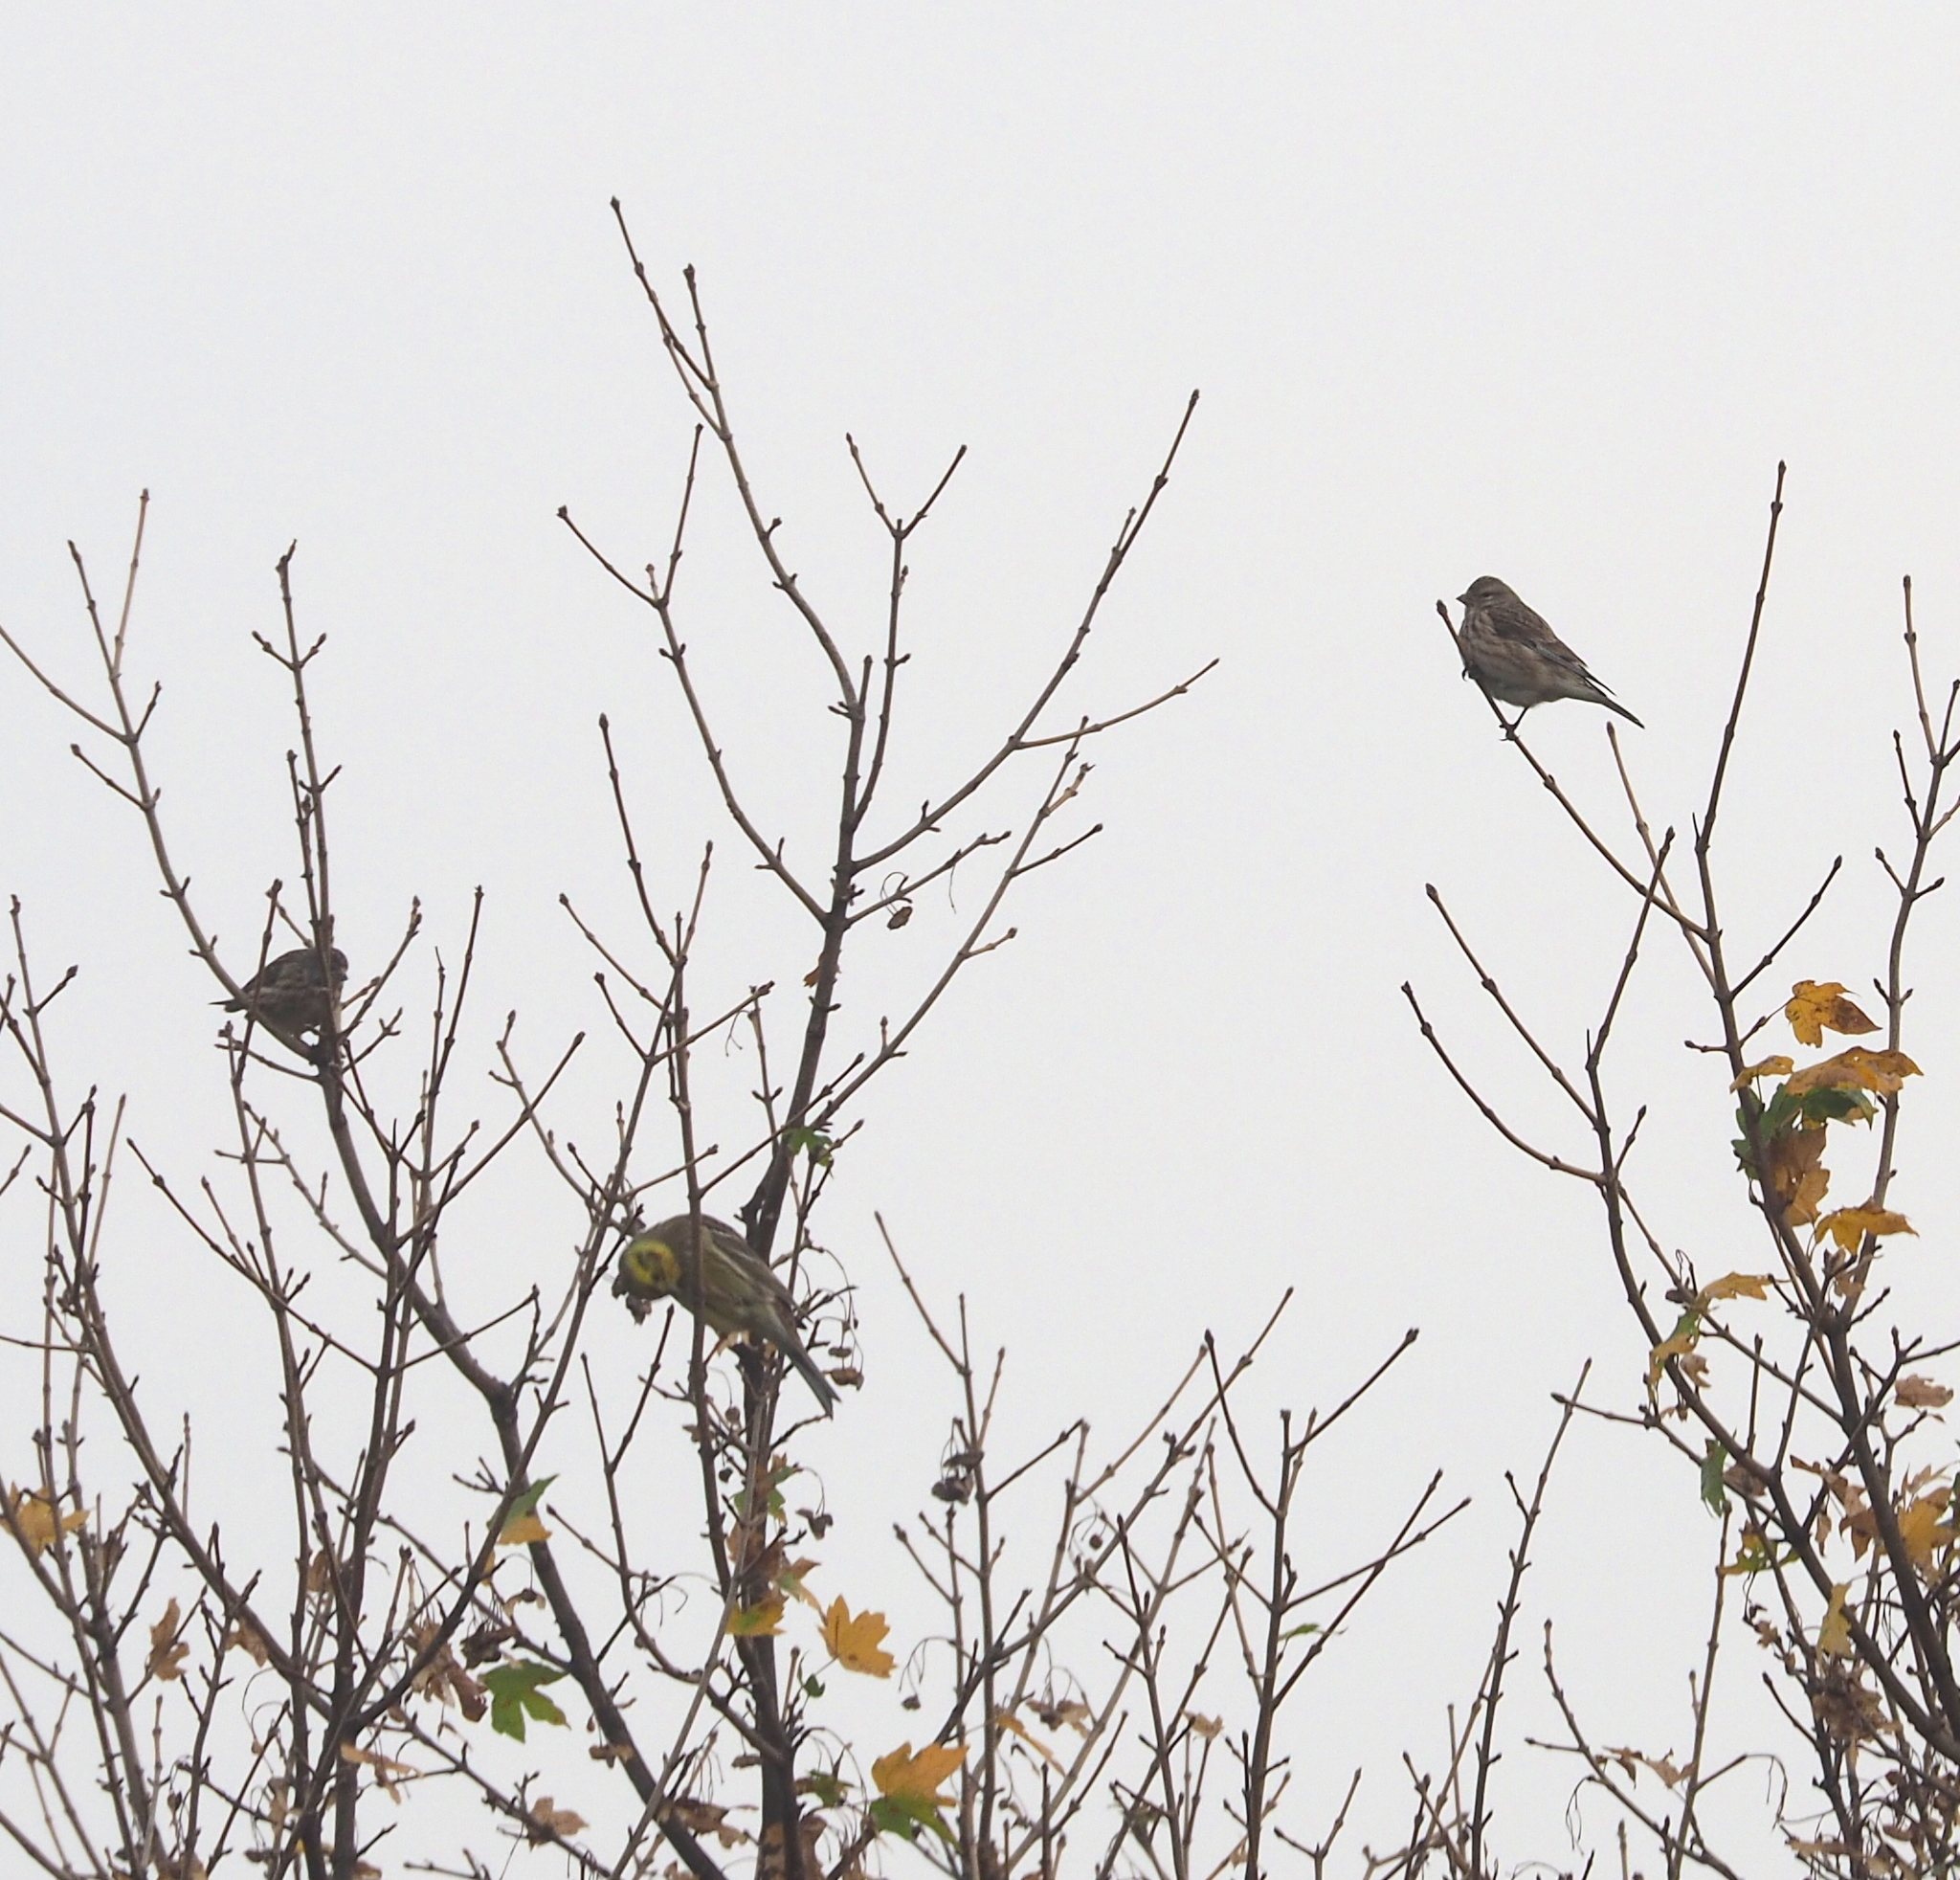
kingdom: Animalia
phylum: Chordata
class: Aves
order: Passeriformes
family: Fringillidae
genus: Linaria
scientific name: Linaria cannabina
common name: Common linnet
